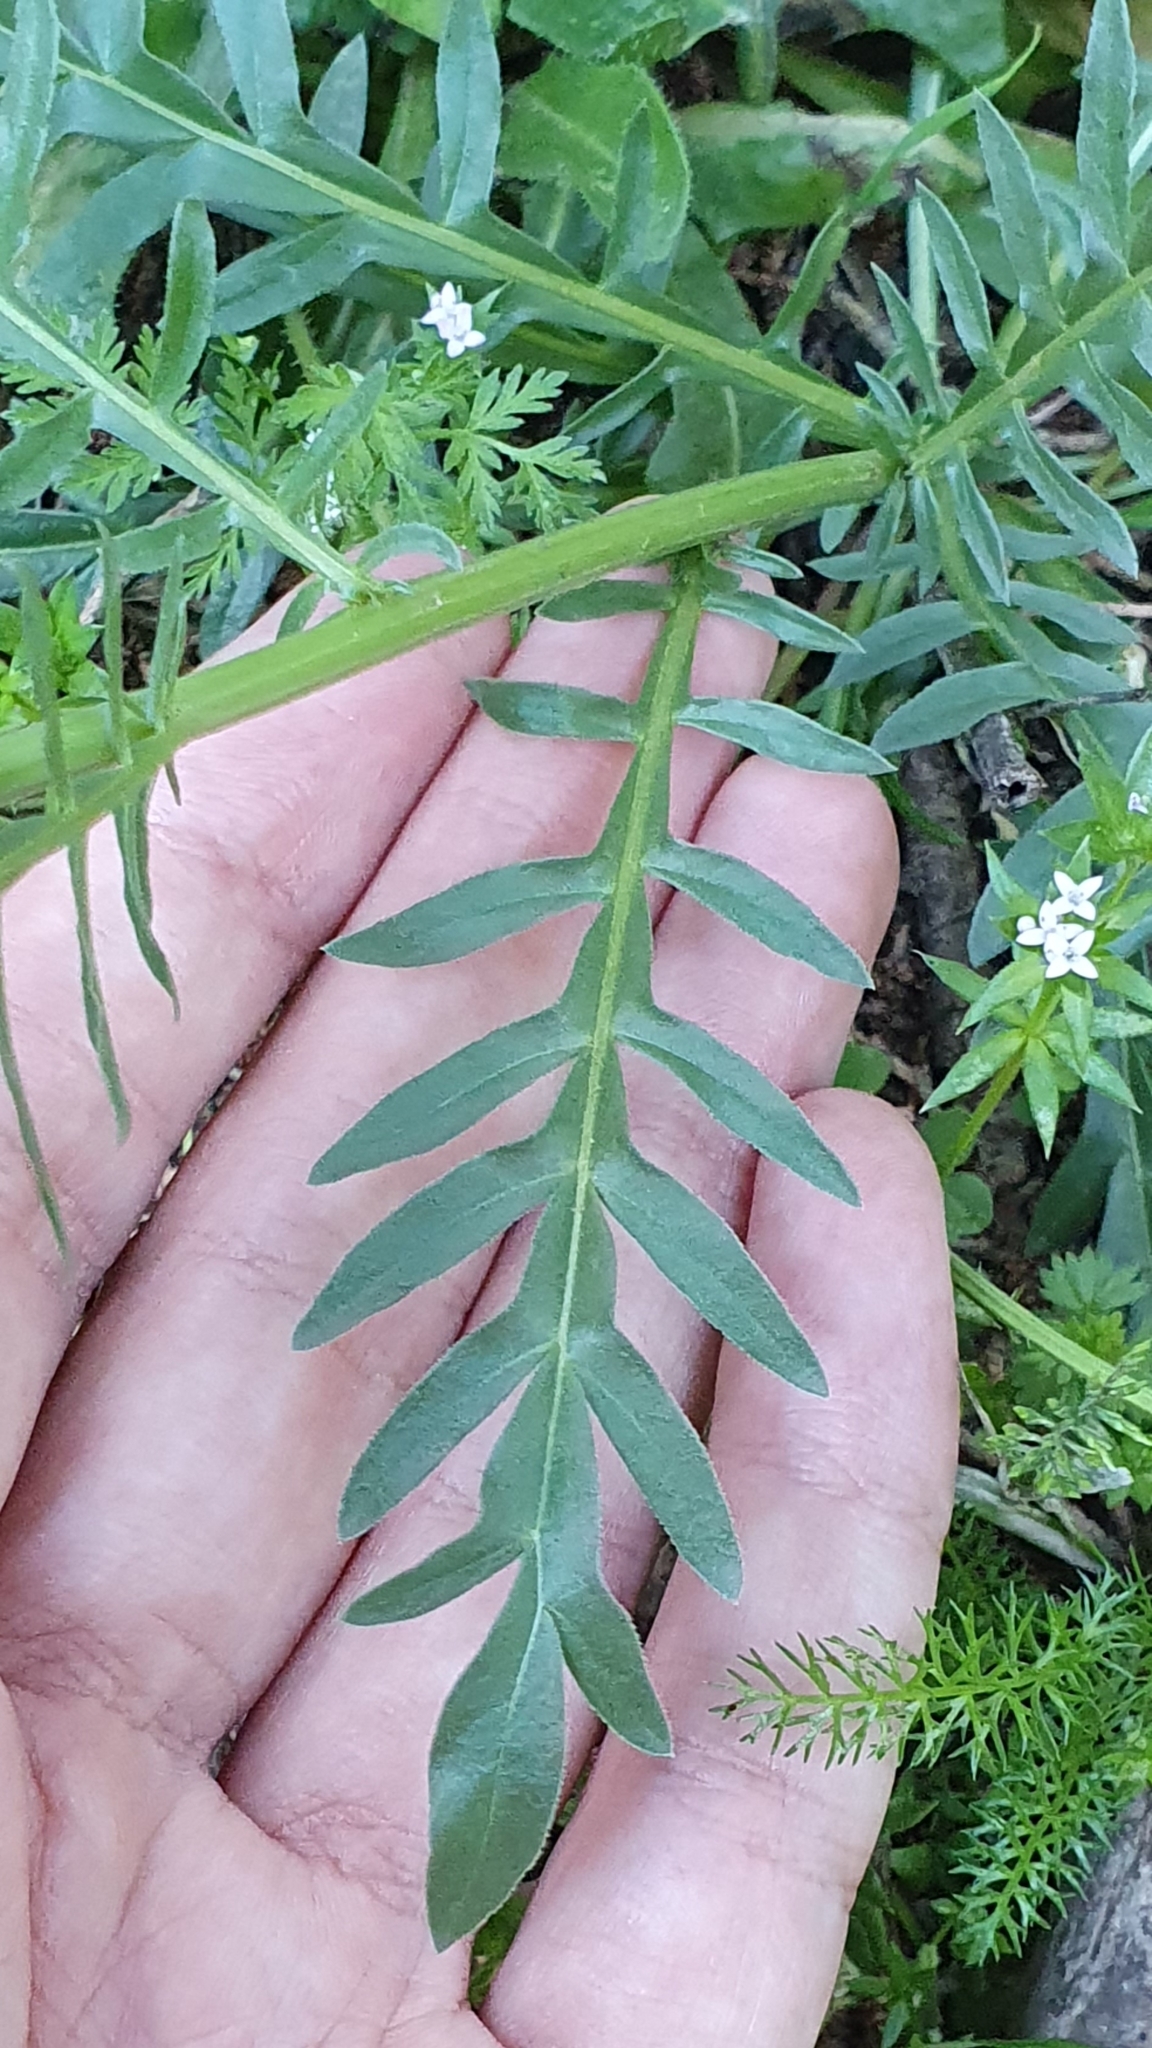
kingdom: Plantae
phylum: Tracheophyta
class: Magnoliopsida
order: Brassicales
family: Resedaceae
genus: Reseda
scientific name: Reseda alba
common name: White mignonette
